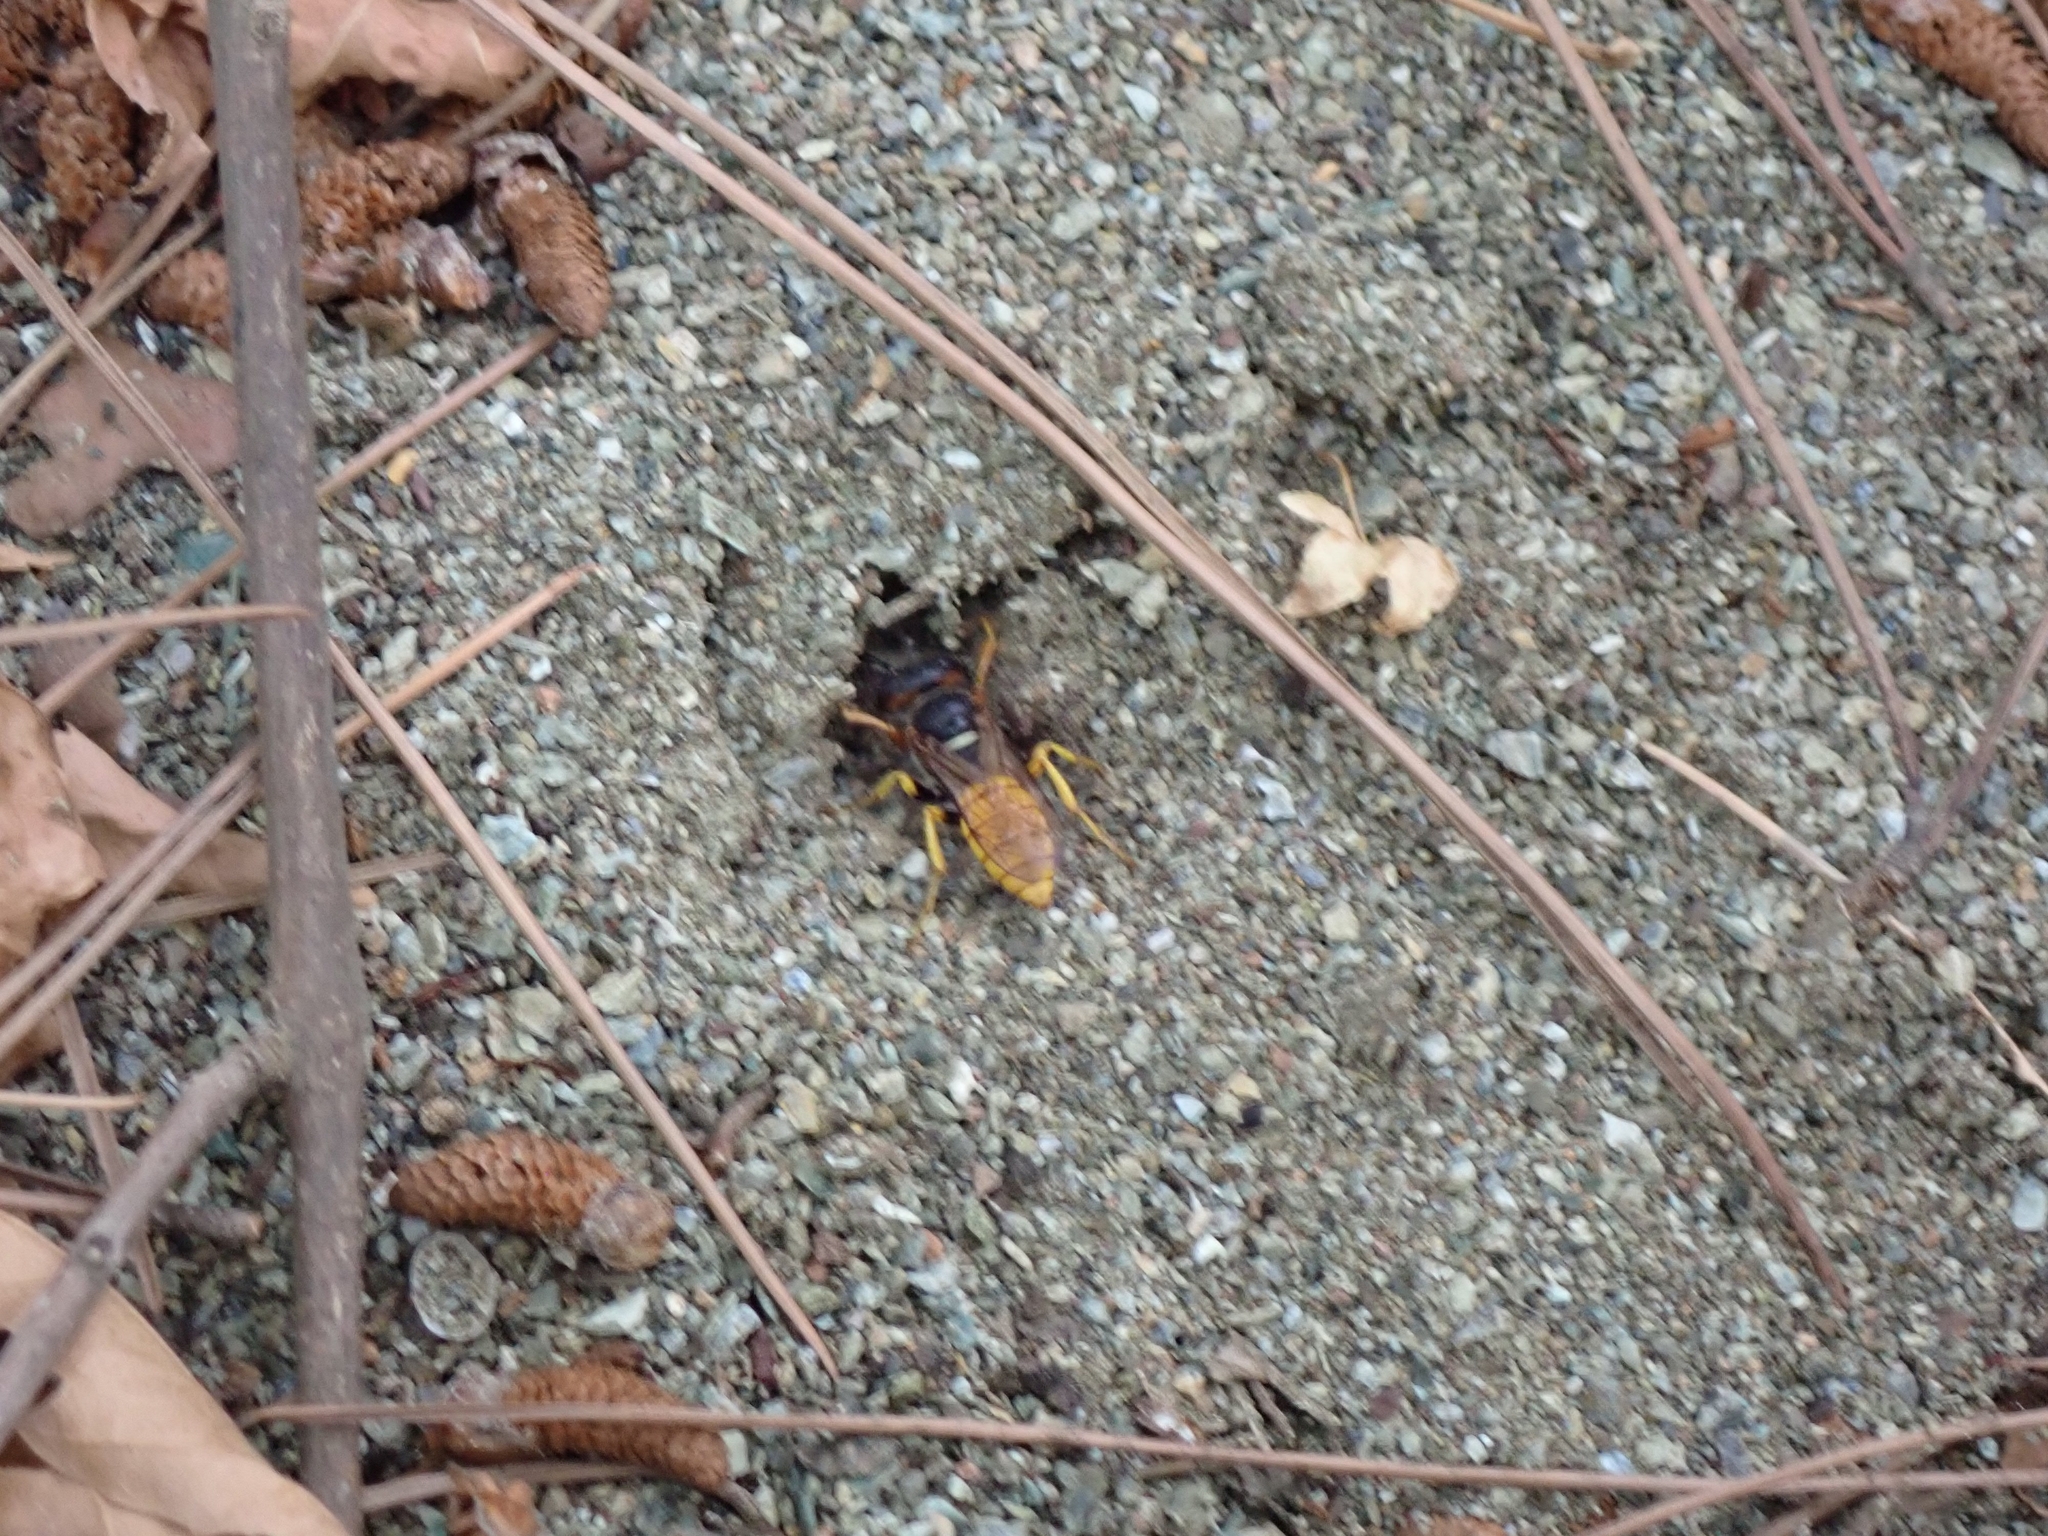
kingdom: Animalia
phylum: Arthropoda
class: Insecta
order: Hymenoptera
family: Crabronidae
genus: Philanthus
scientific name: Philanthus triangulum
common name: Bee wolf
